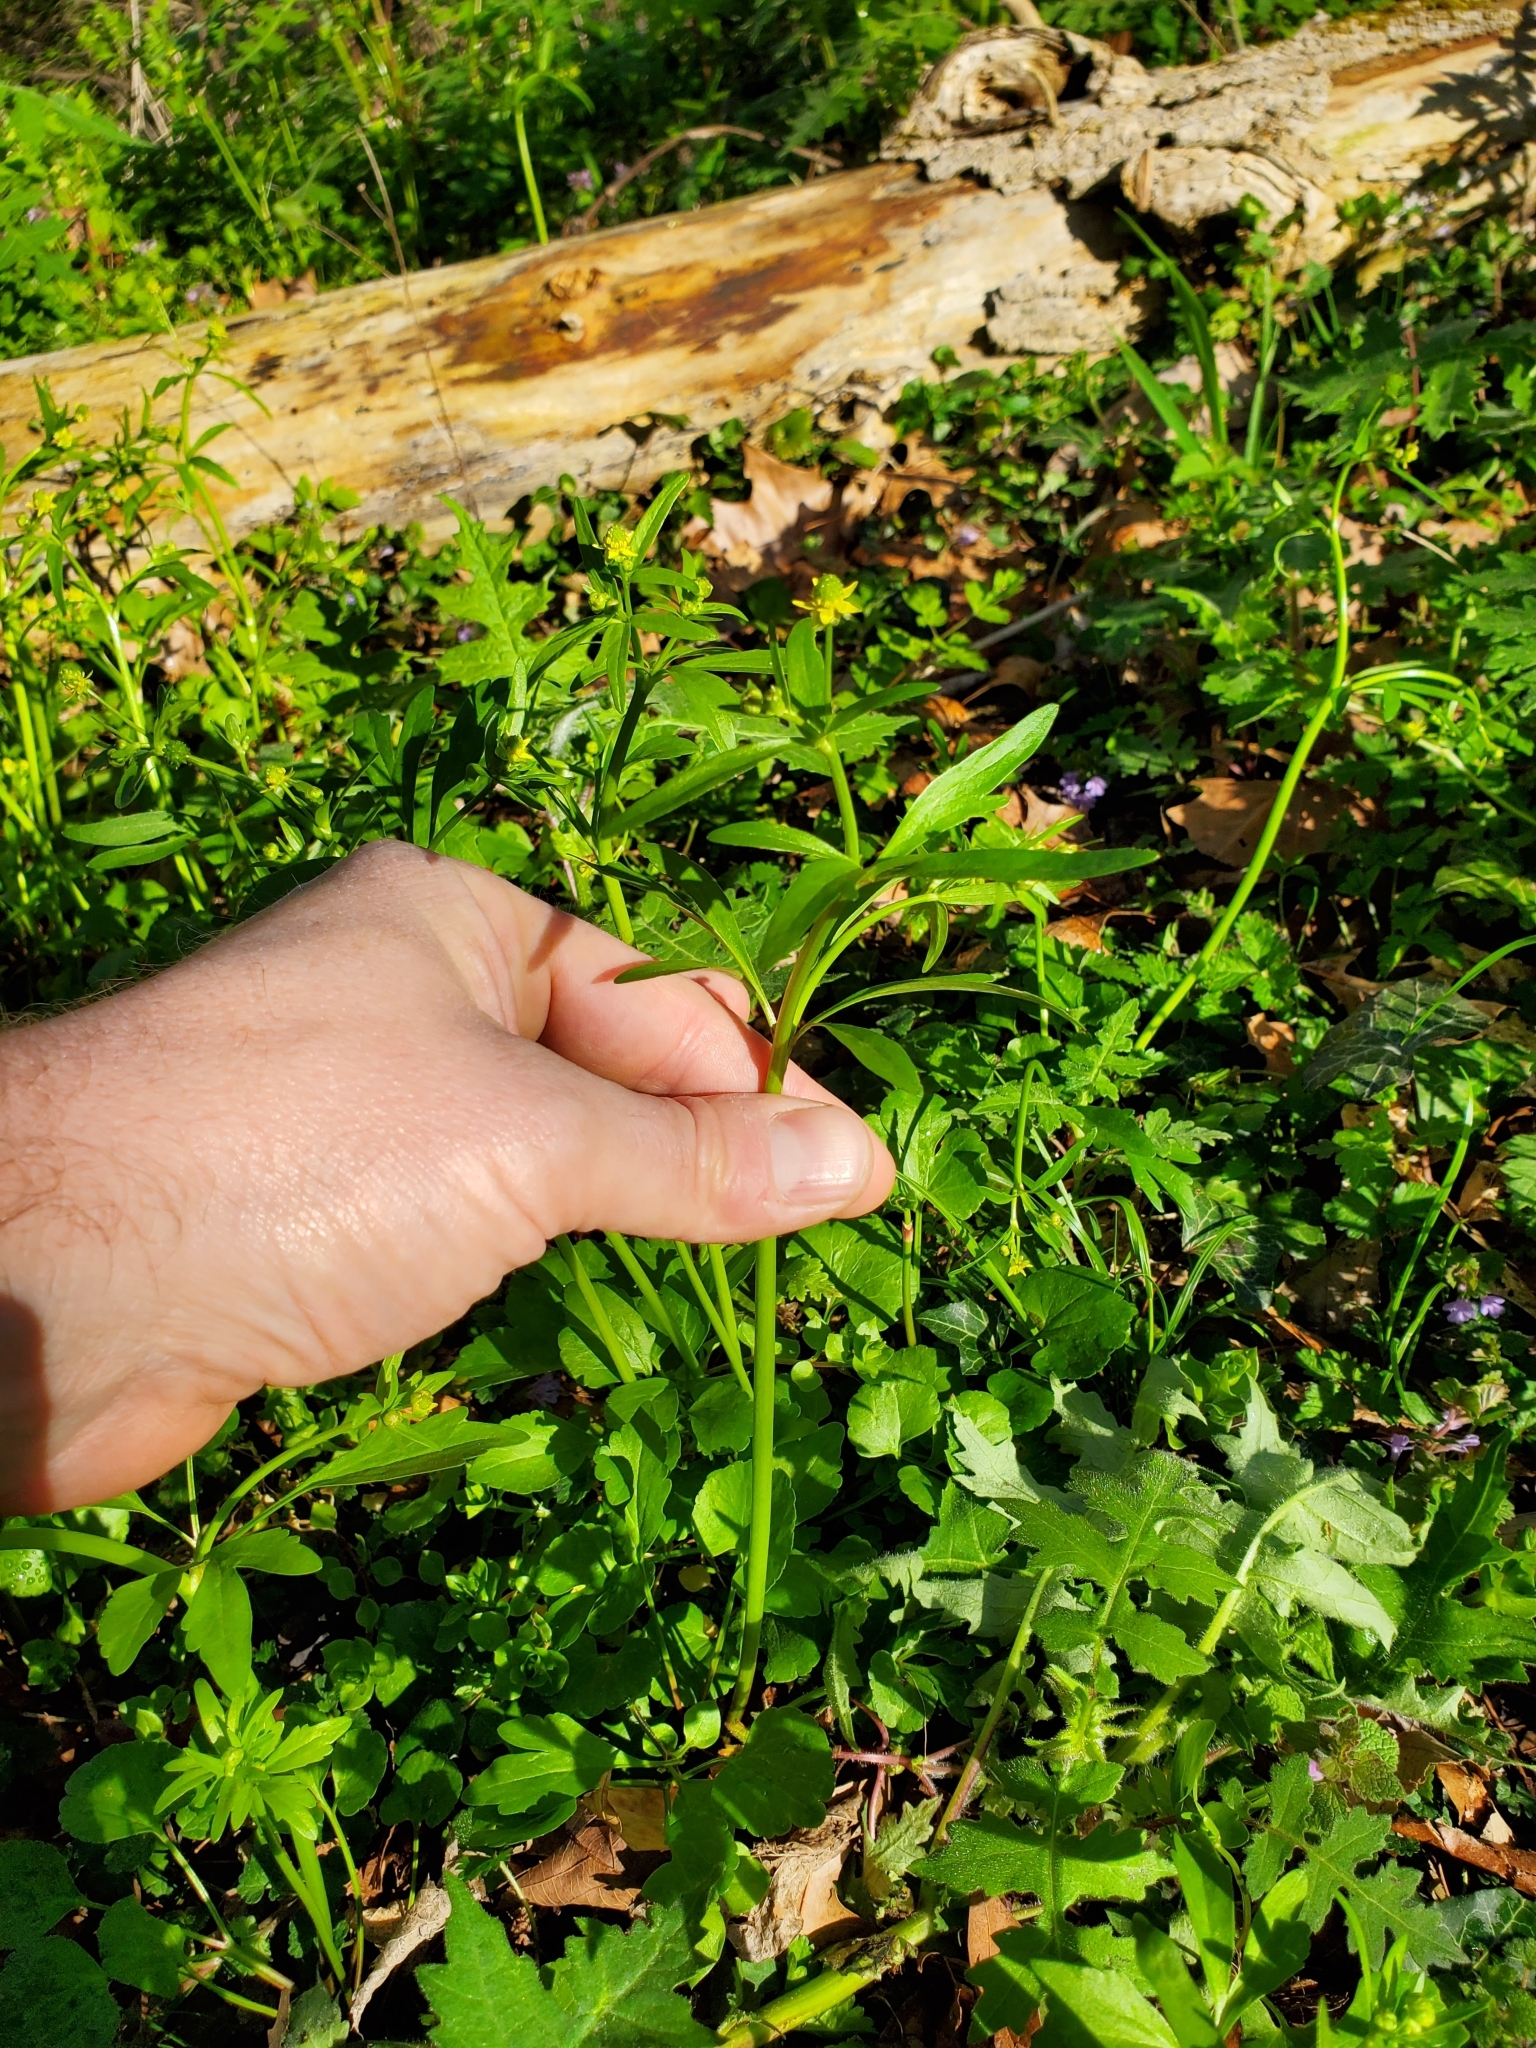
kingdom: Plantae
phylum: Tracheophyta
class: Magnoliopsida
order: Ranunculales
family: Ranunculaceae
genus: Ranunculus
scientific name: Ranunculus abortivus
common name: Early wood buttercup
